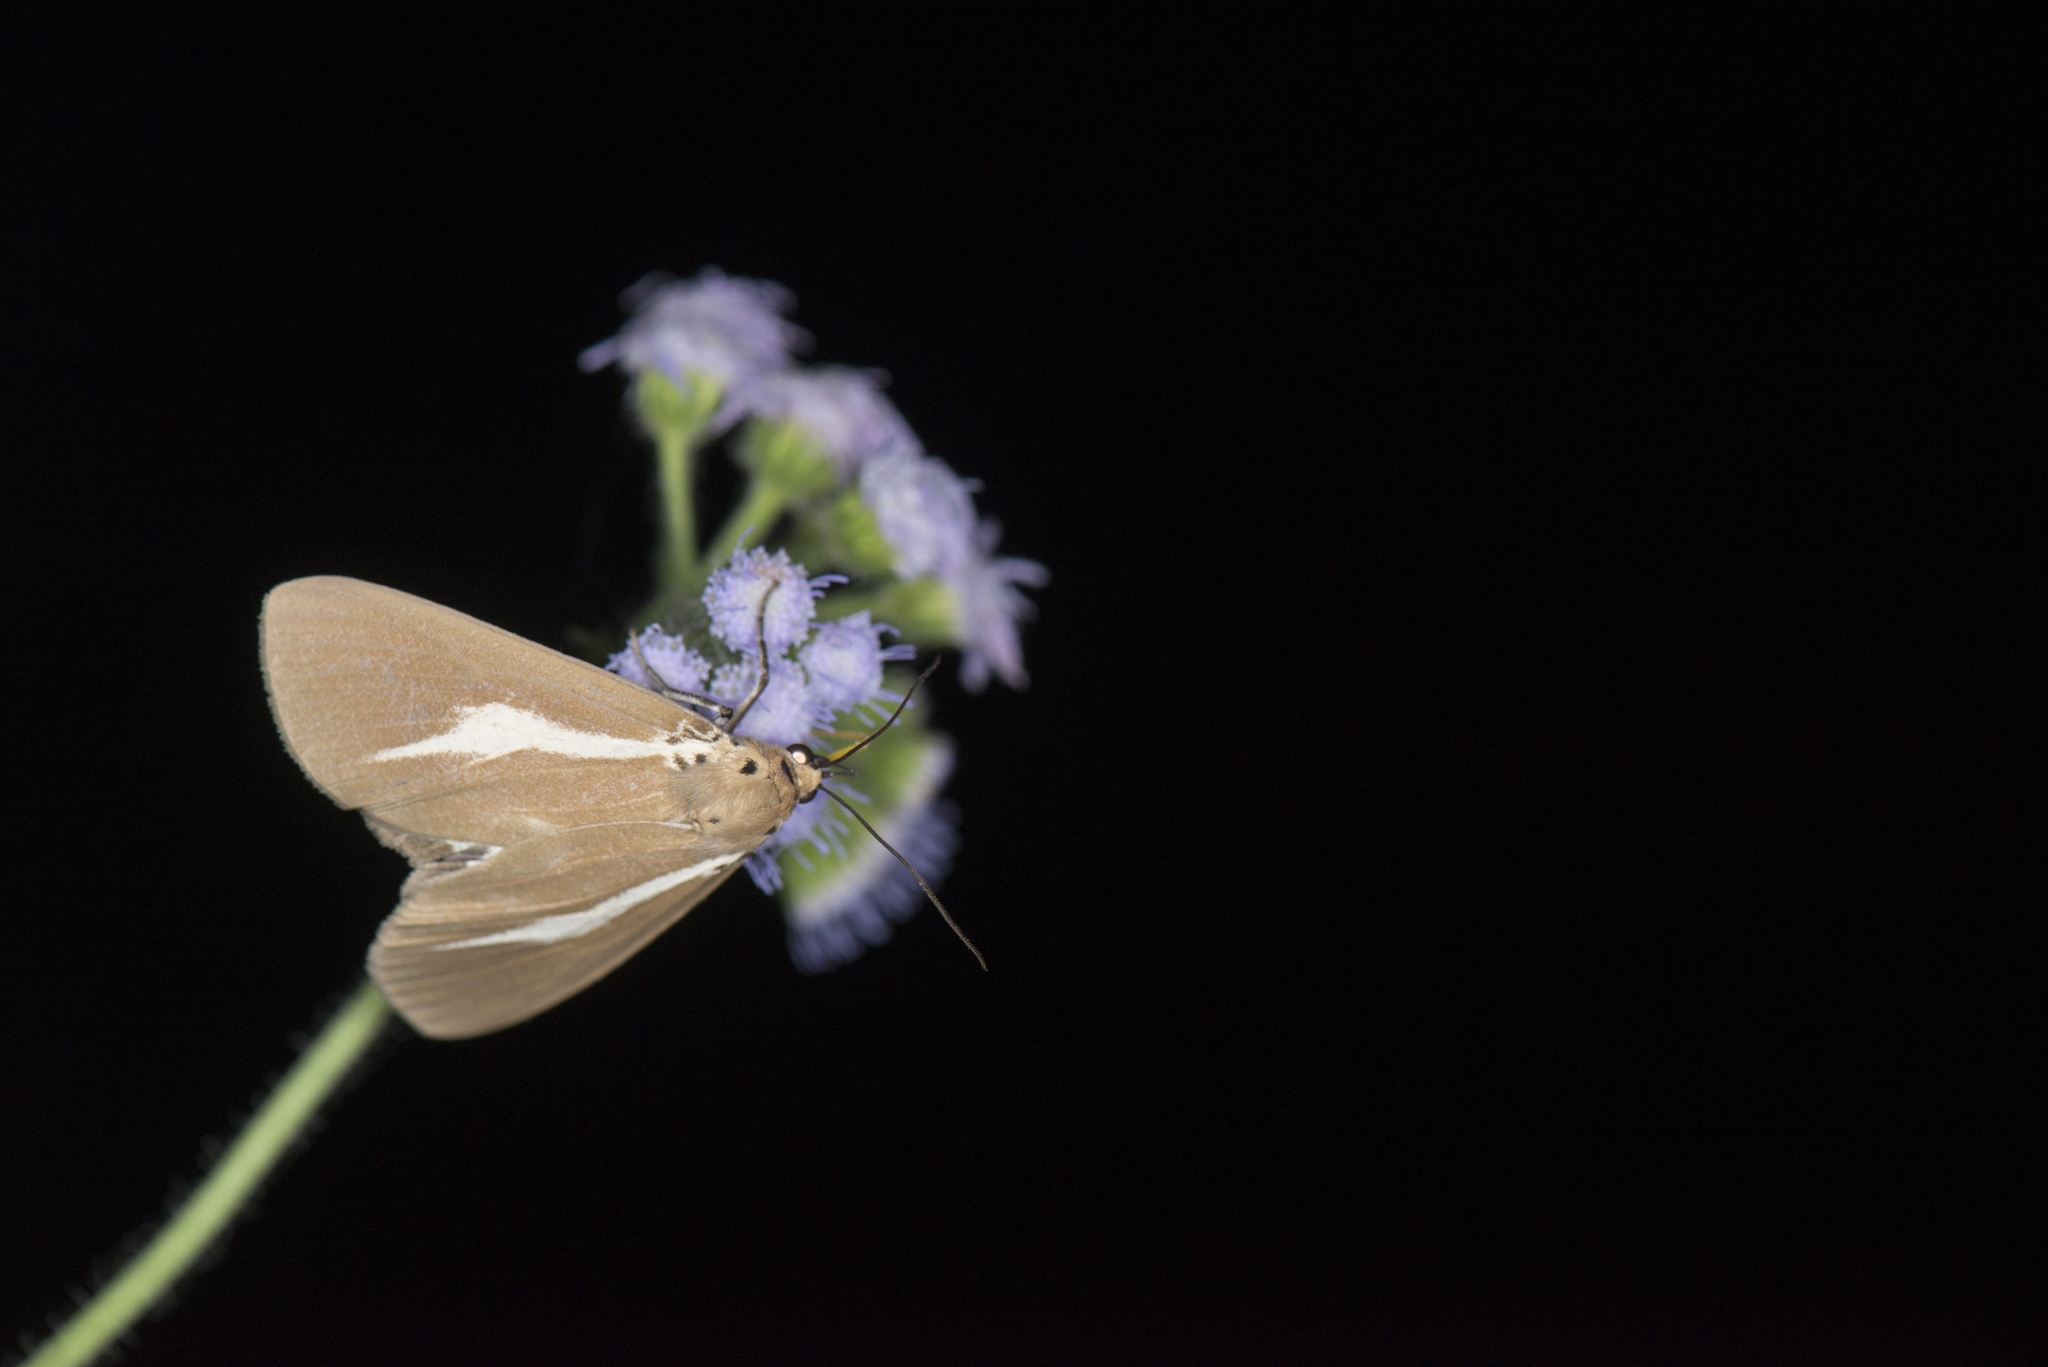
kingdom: Animalia
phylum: Arthropoda
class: Insecta
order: Lepidoptera
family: Erebidae
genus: Asota
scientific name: Asota heliconia
